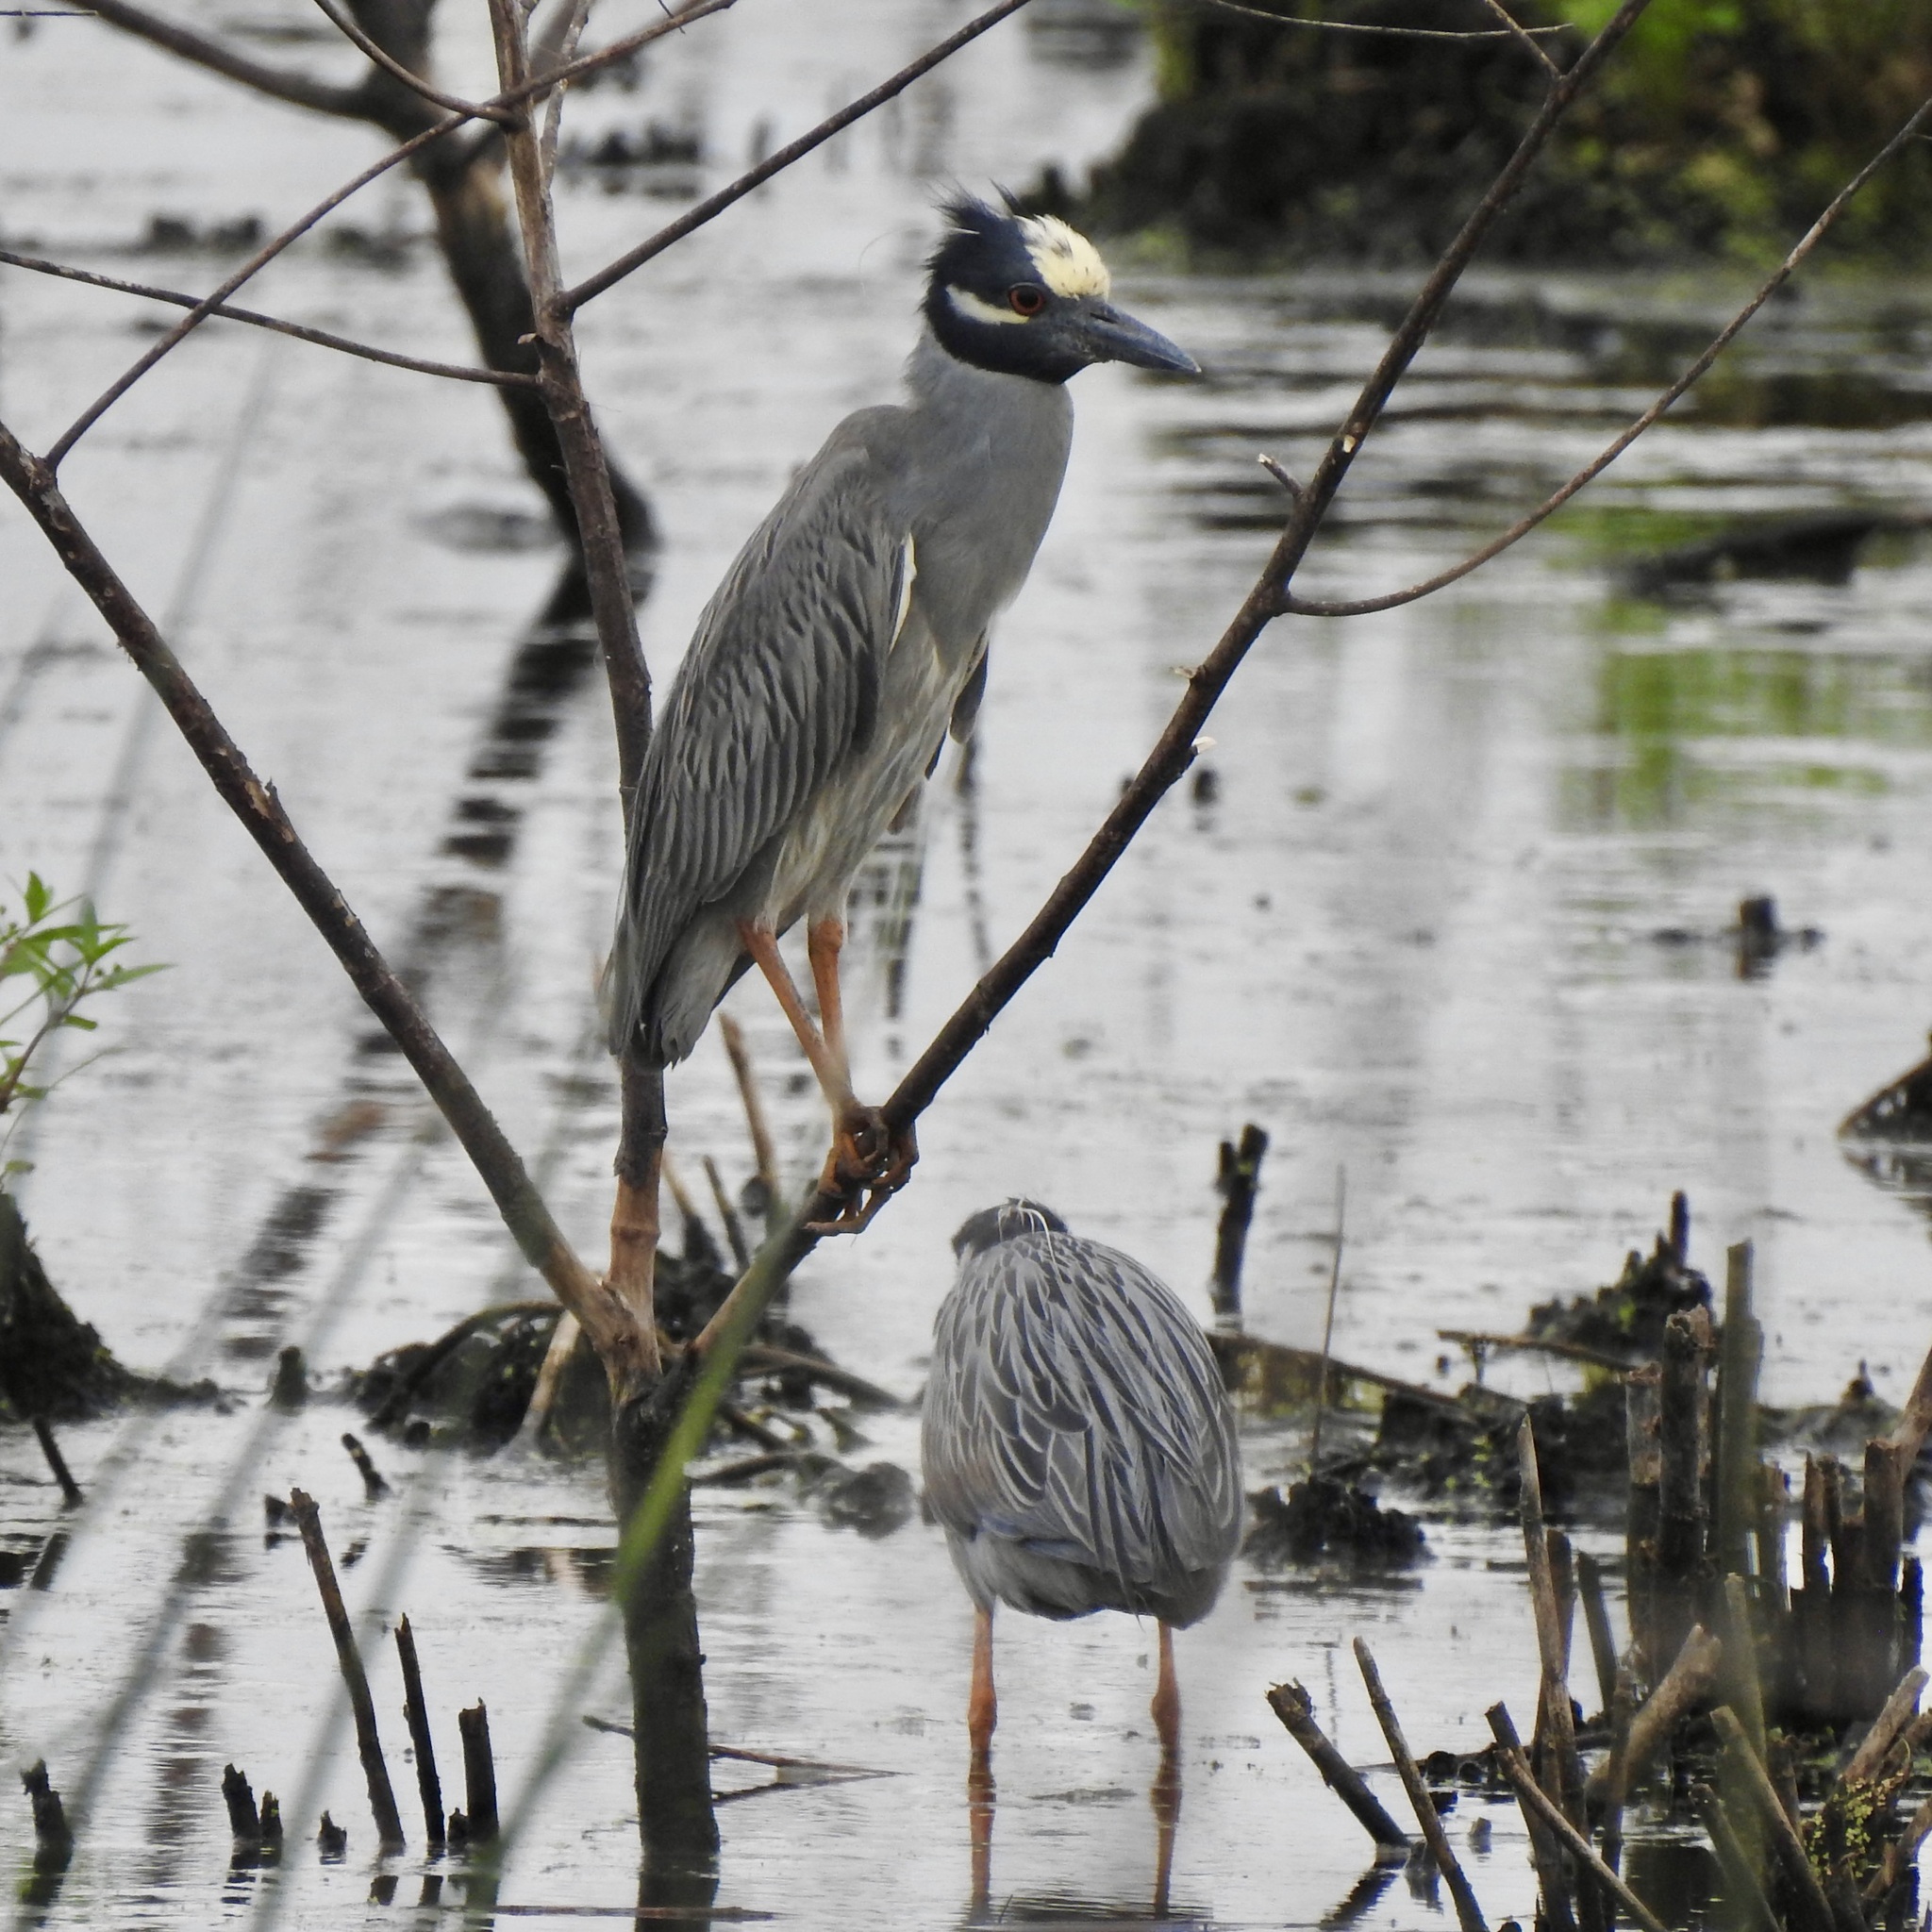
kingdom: Animalia
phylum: Chordata
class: Aves
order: Pelecaniformes
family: Ardeidae
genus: Nyctanassa
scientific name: Nyctanassa violacea
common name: Yellow-crowned night heron
